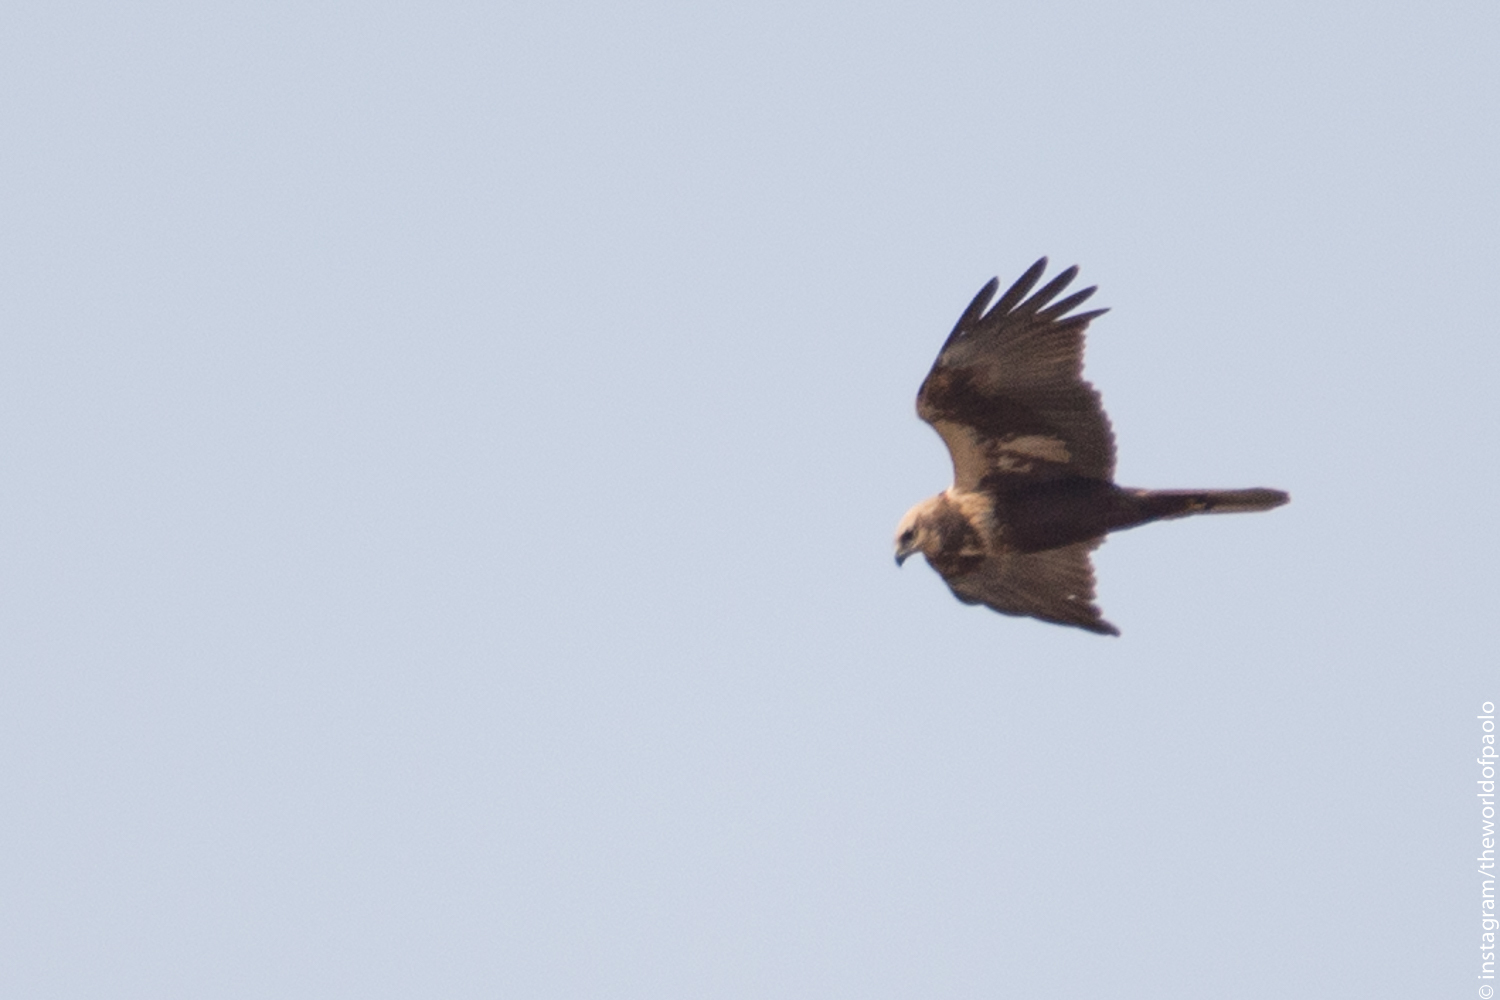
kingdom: Animalia
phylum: Chordata
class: Aves
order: Accipitriformes
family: Accipitridae
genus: Circus
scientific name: Circus aeruginosus
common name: Western marsh harrier
